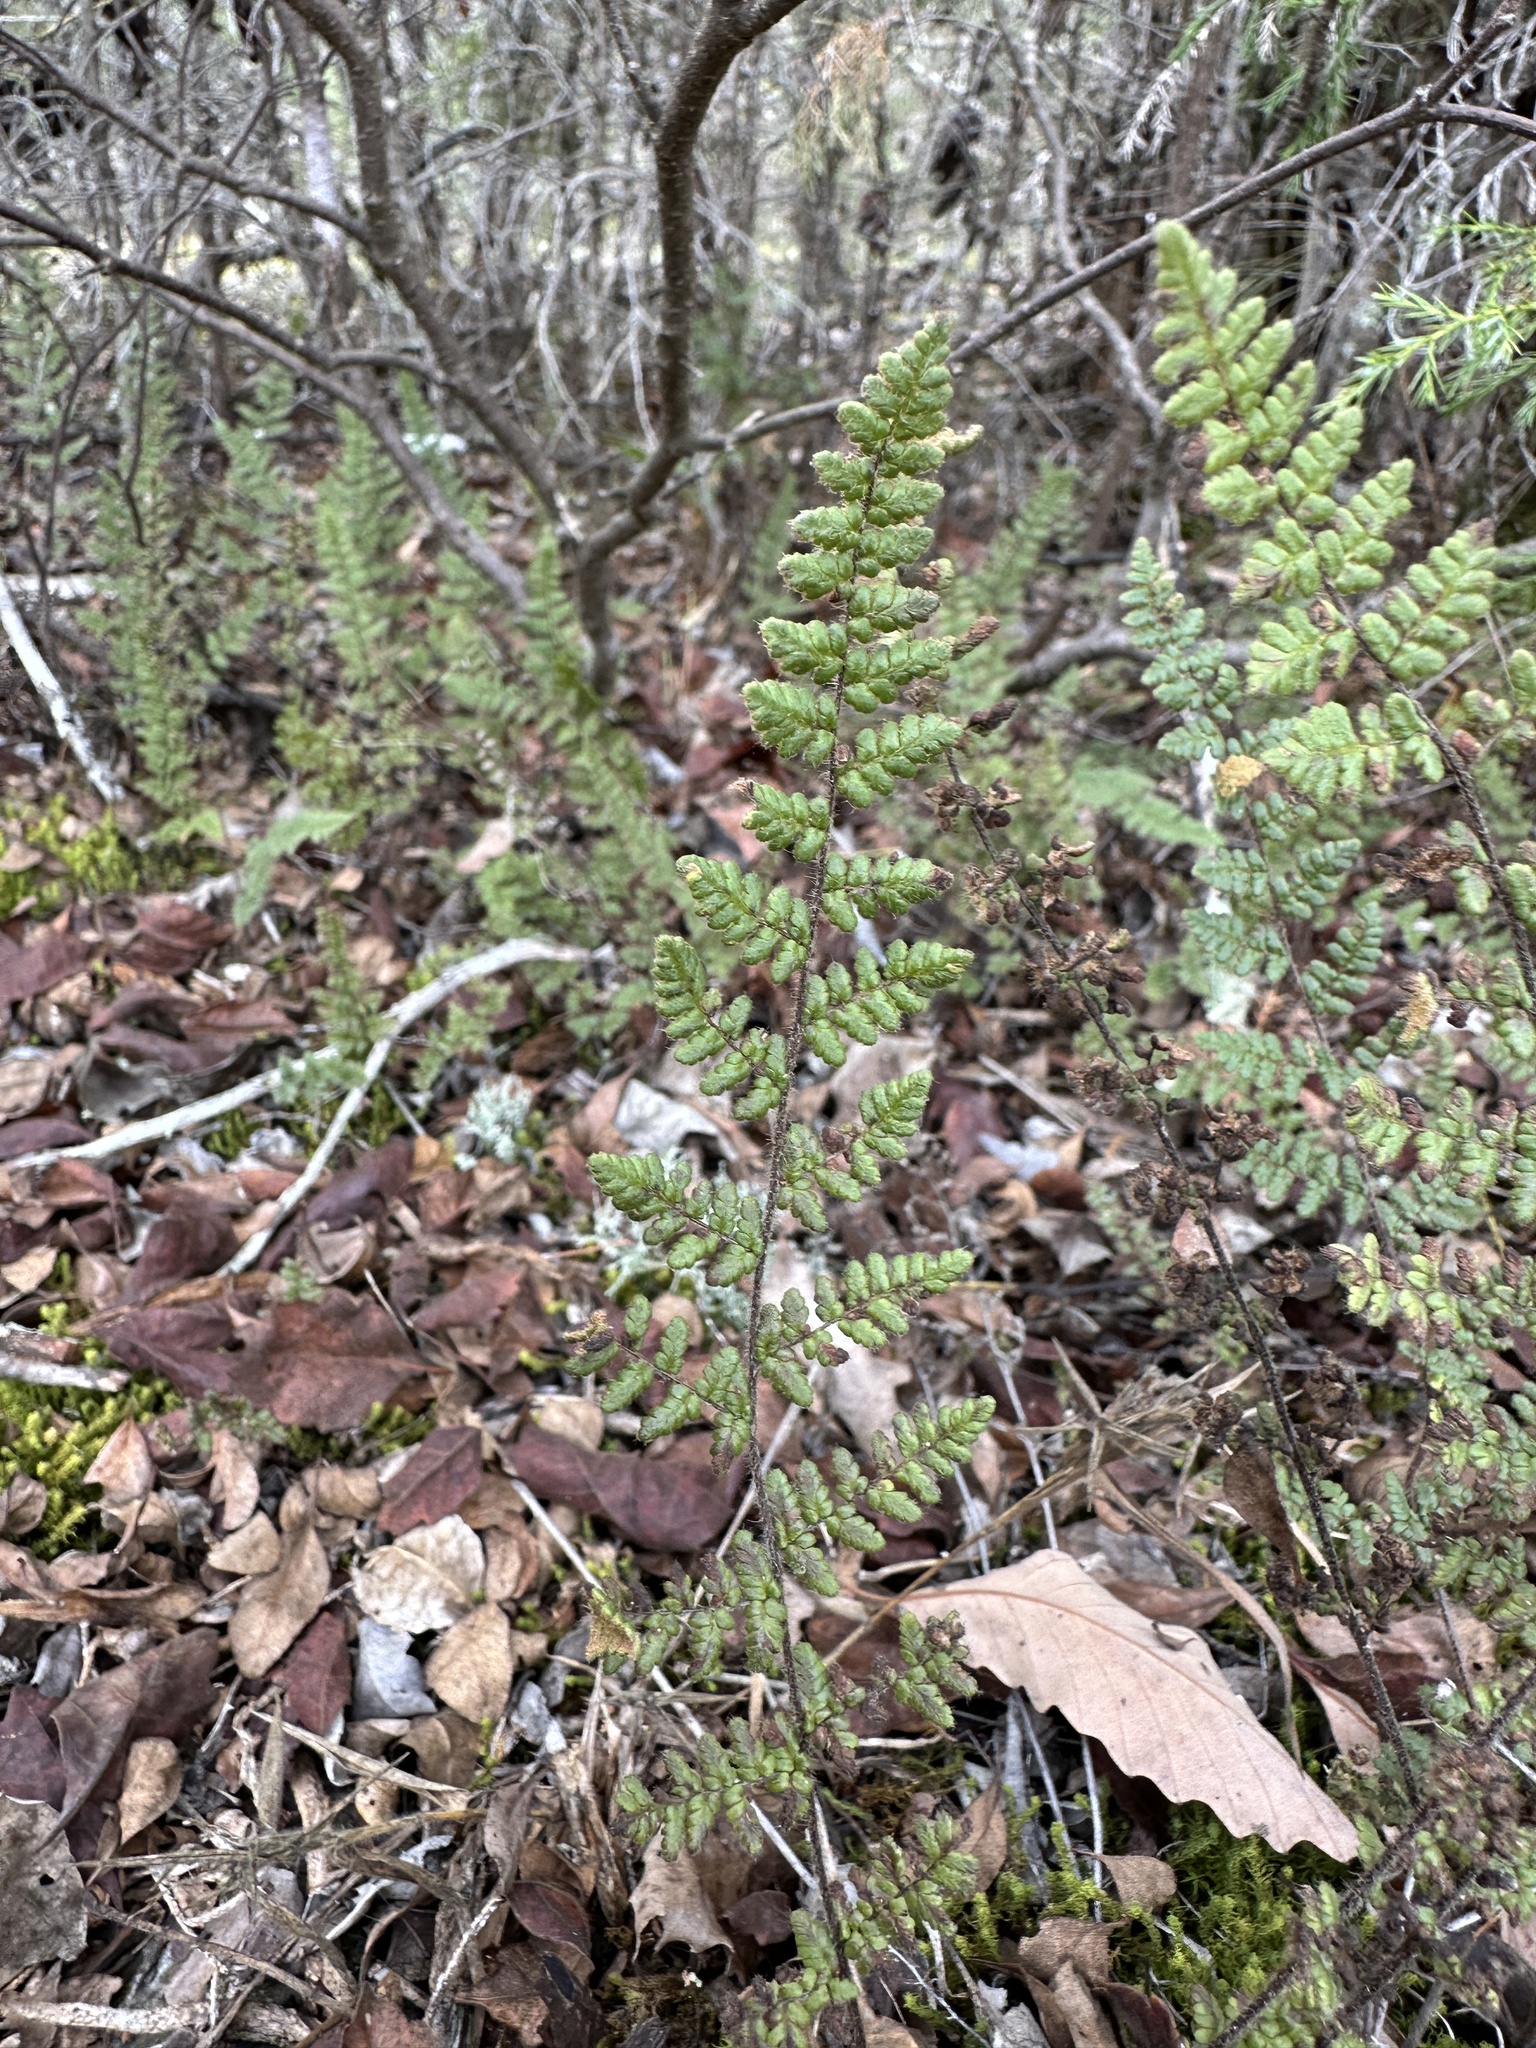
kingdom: Plantae
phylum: Tracheophyta
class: Polypodiopsida
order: Polypodiales
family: Pteridaceae
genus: Myriopteris
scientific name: Myriopteris lanosa
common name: Hairy lip fern
